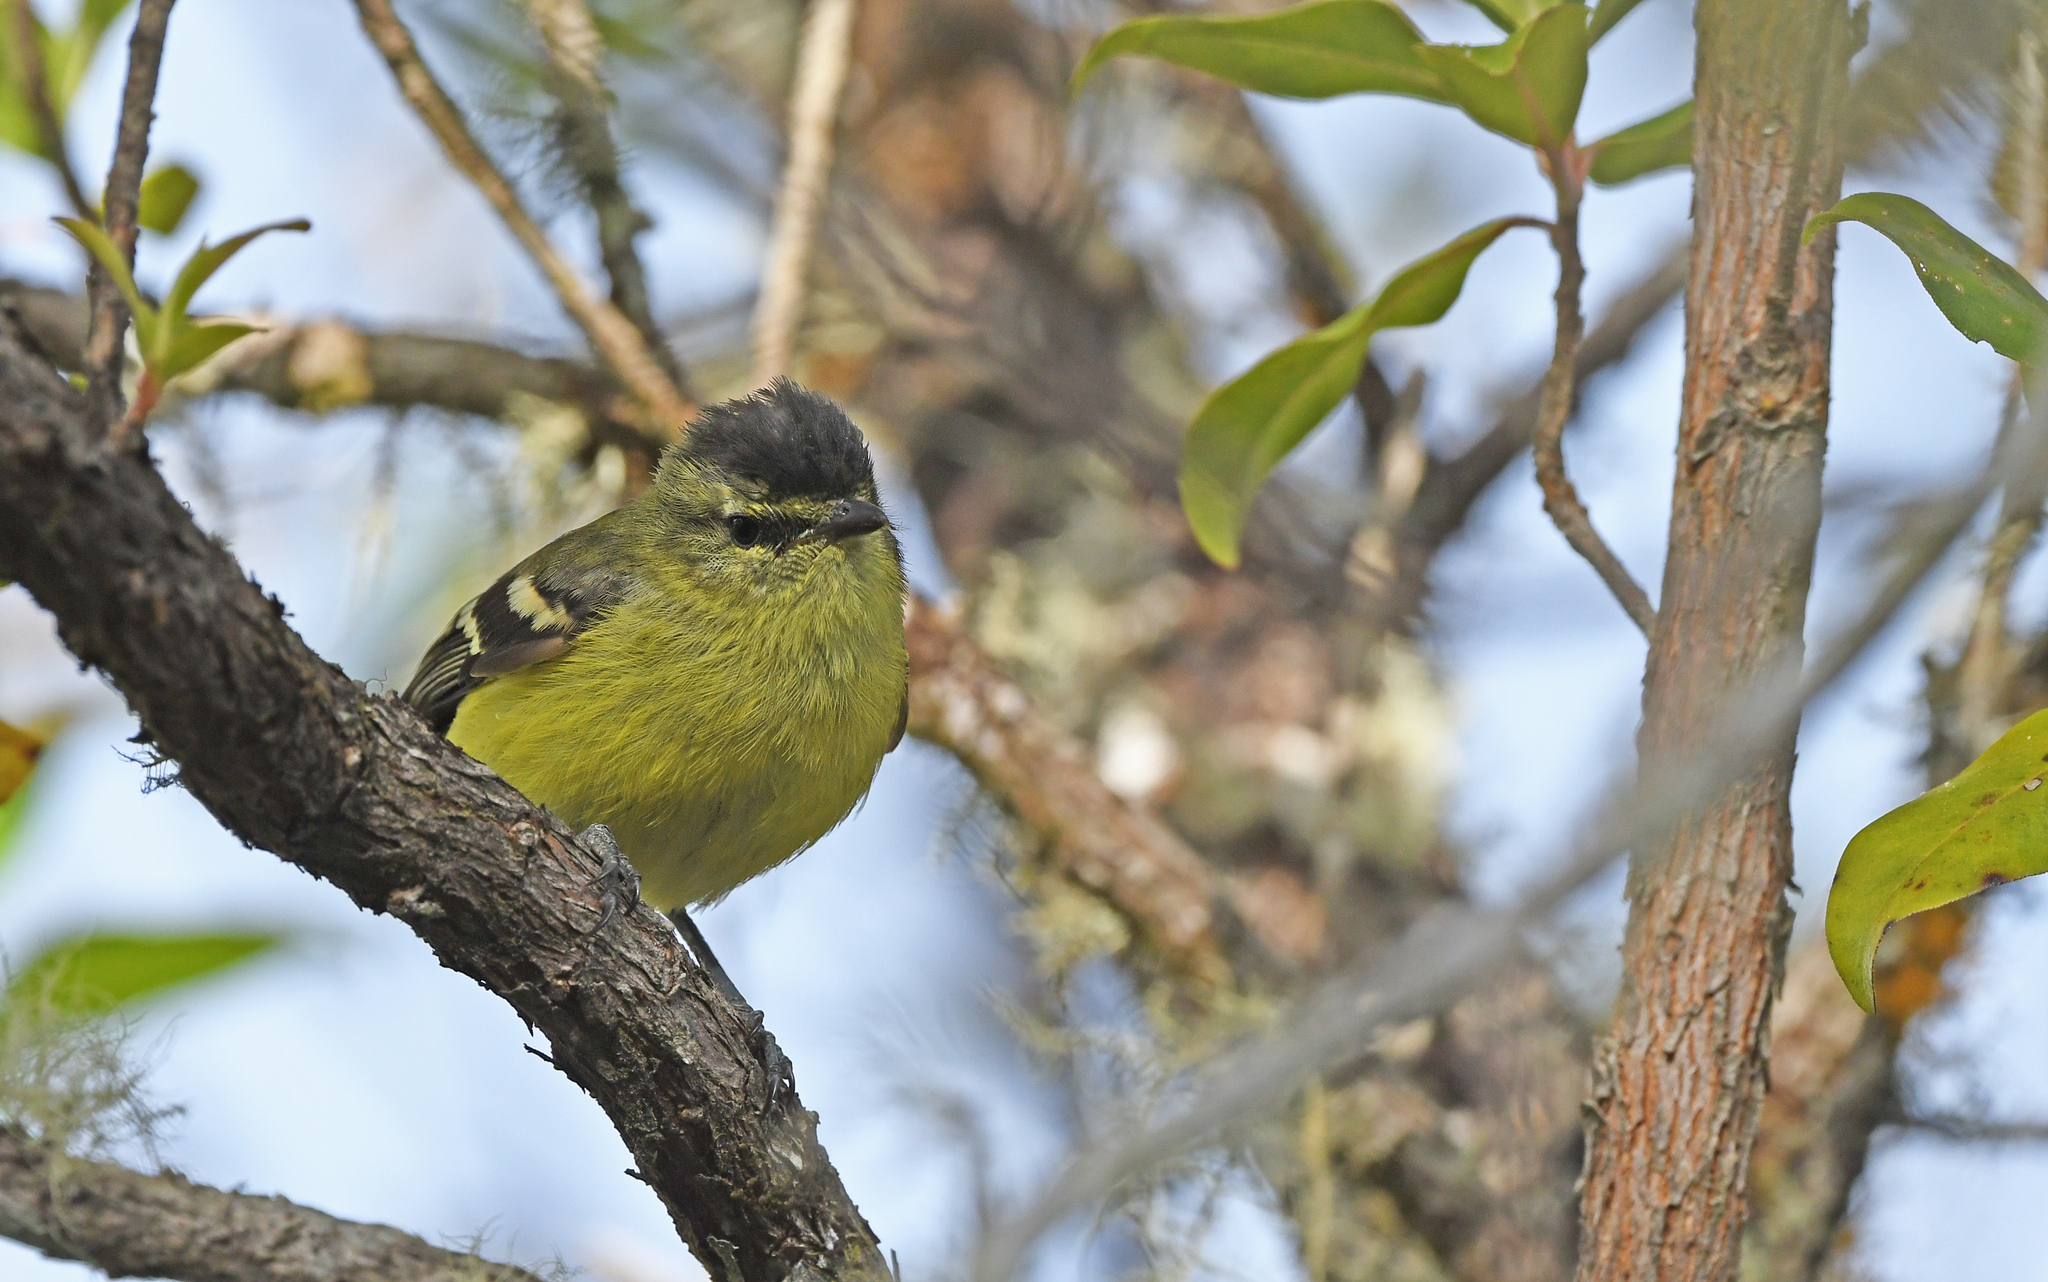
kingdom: Animalia
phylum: Chordata
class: Aves
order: Passeriformes
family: Tyrannidae
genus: Phyllomyias
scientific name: Phyllomyias nigrocapillus
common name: Black-capped tyrannulet
